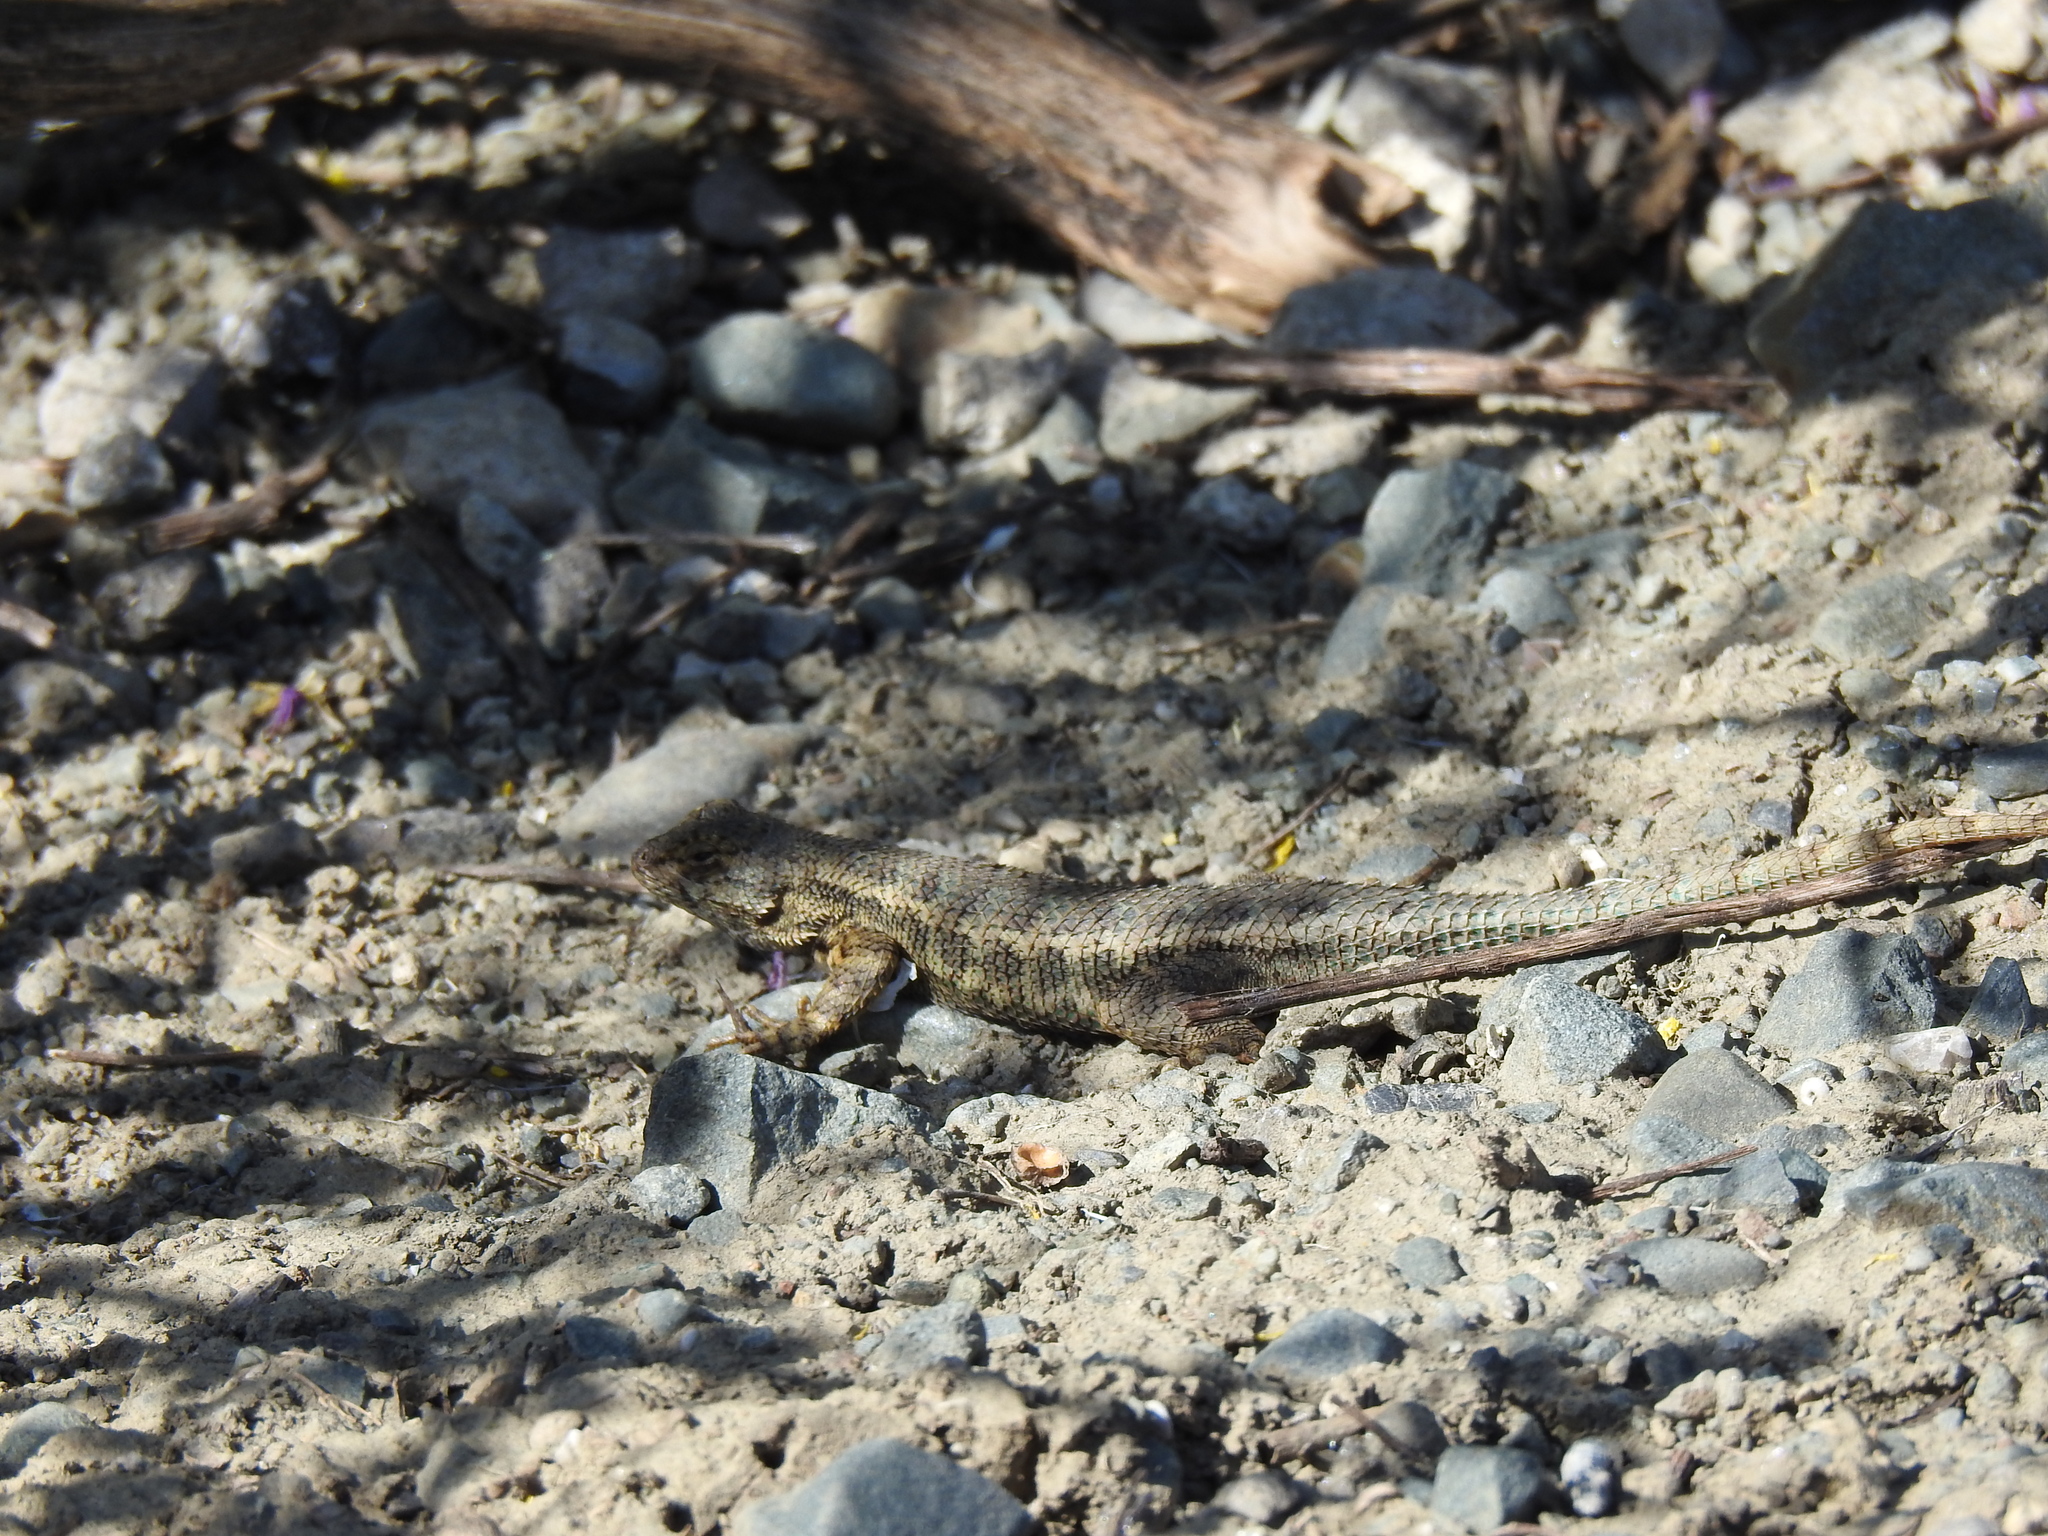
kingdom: Animalia
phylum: Chordata
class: Squamata
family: Phrynosomatidae
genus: Sceloporus
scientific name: Sceloporus occidentalis
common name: Western fence lizard
